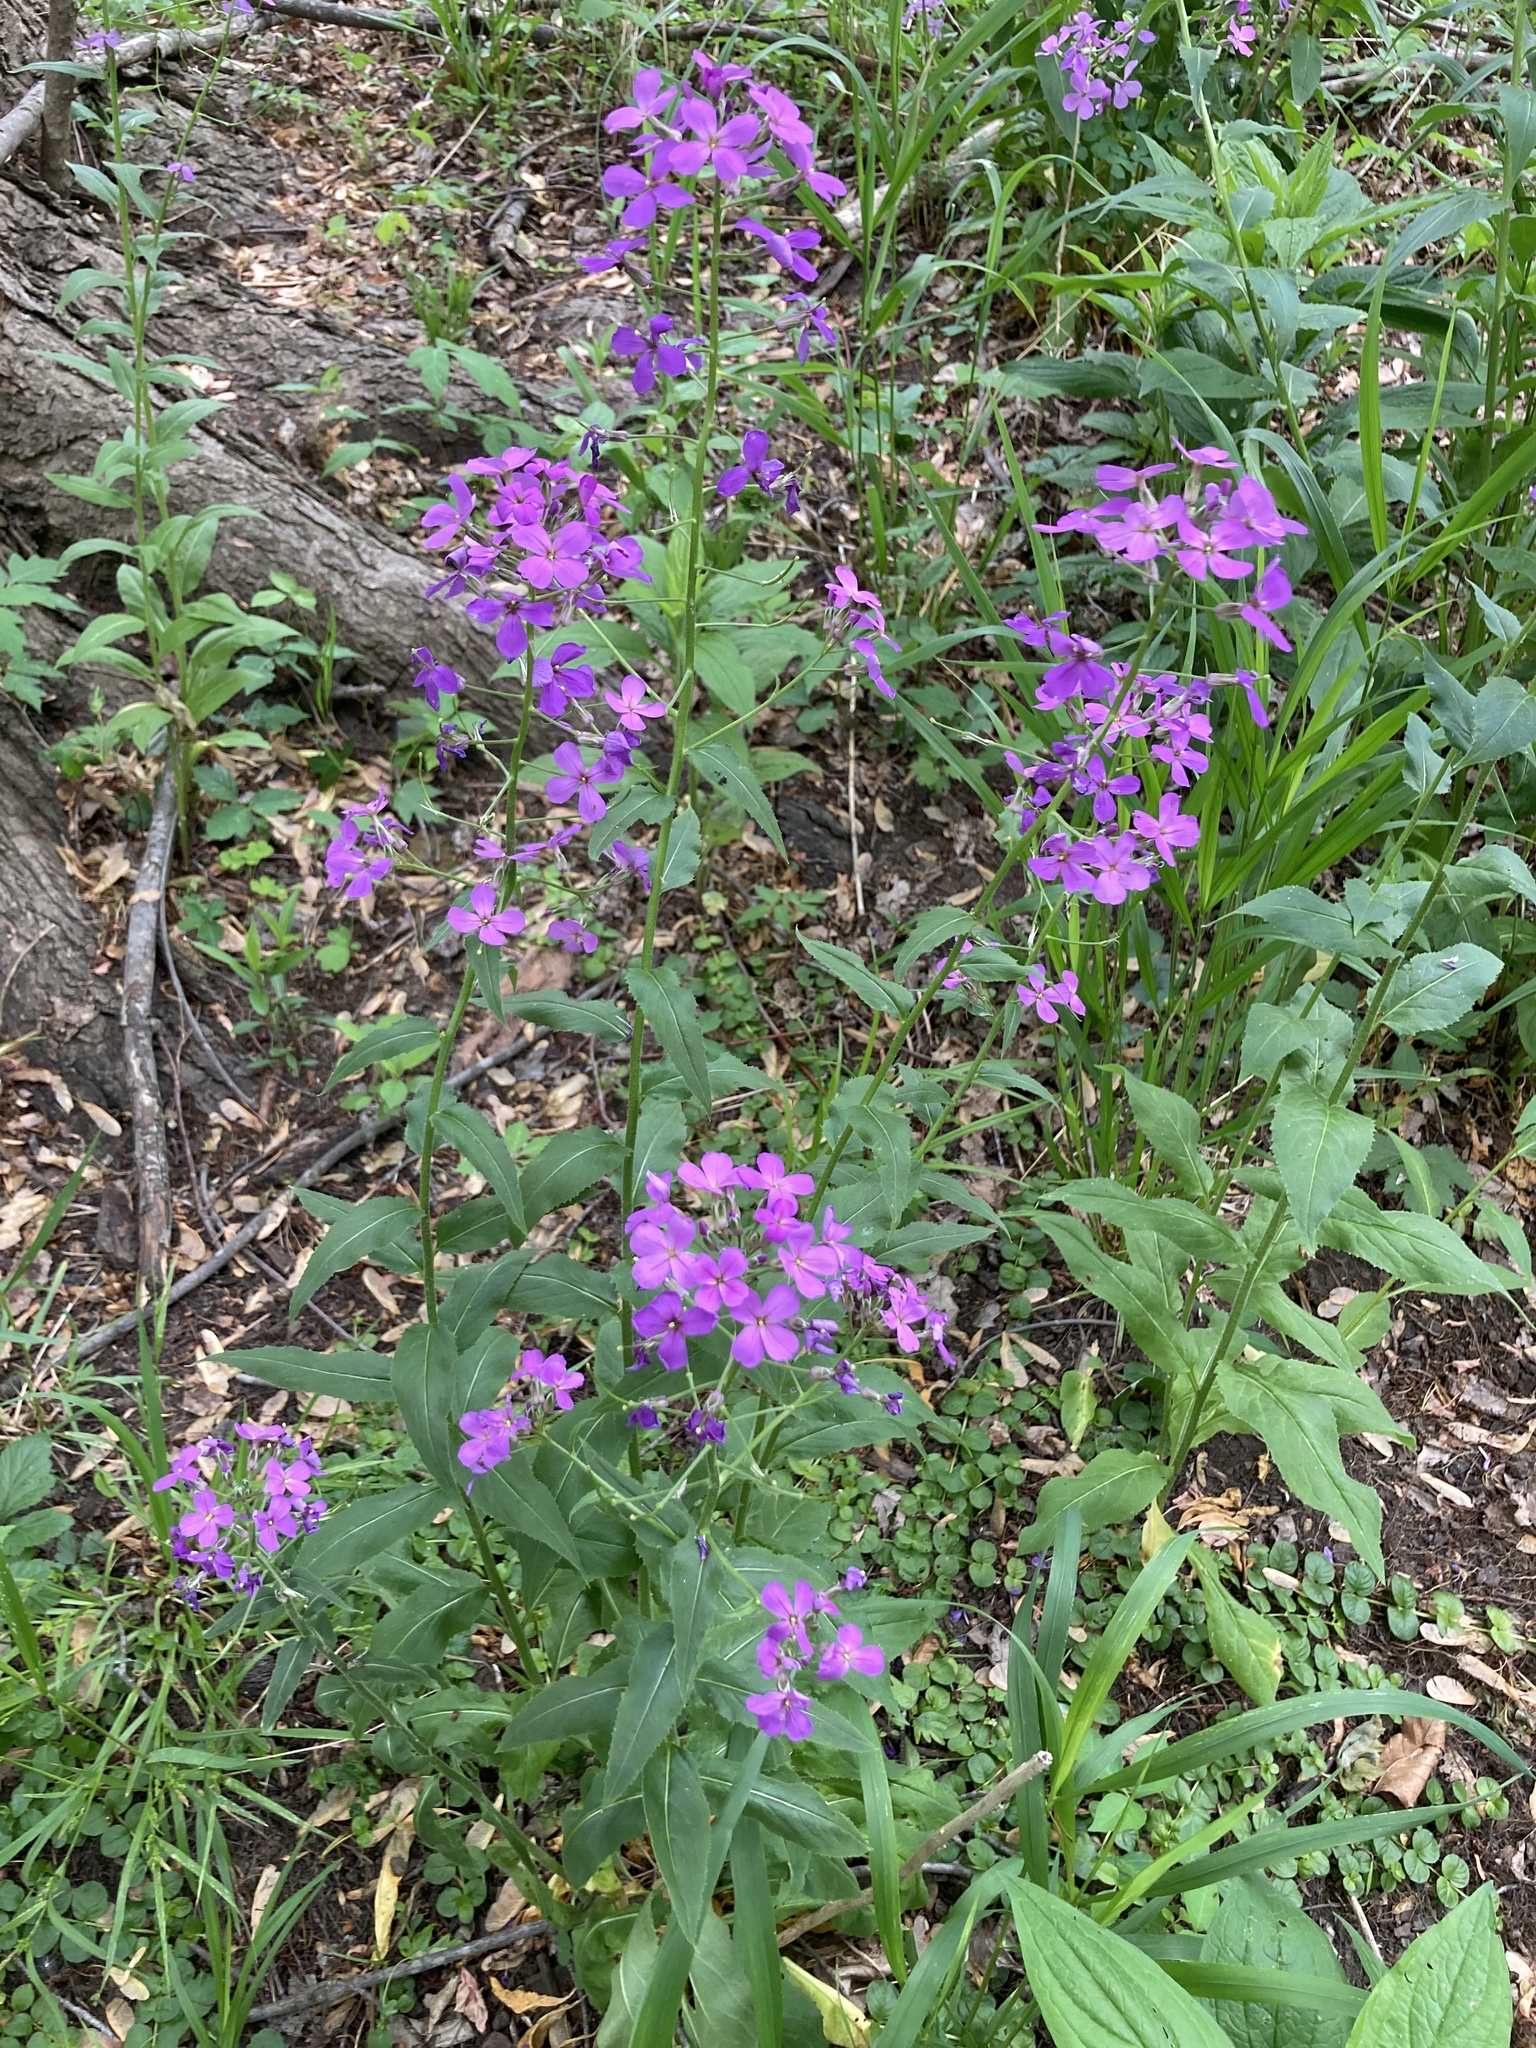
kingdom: Plantae
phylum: Tracheophyta
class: Magnoliopsida
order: Brassicales
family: Brassicaceae
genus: Hesperis
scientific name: Hesperis matronalis
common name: Dame's-violet
